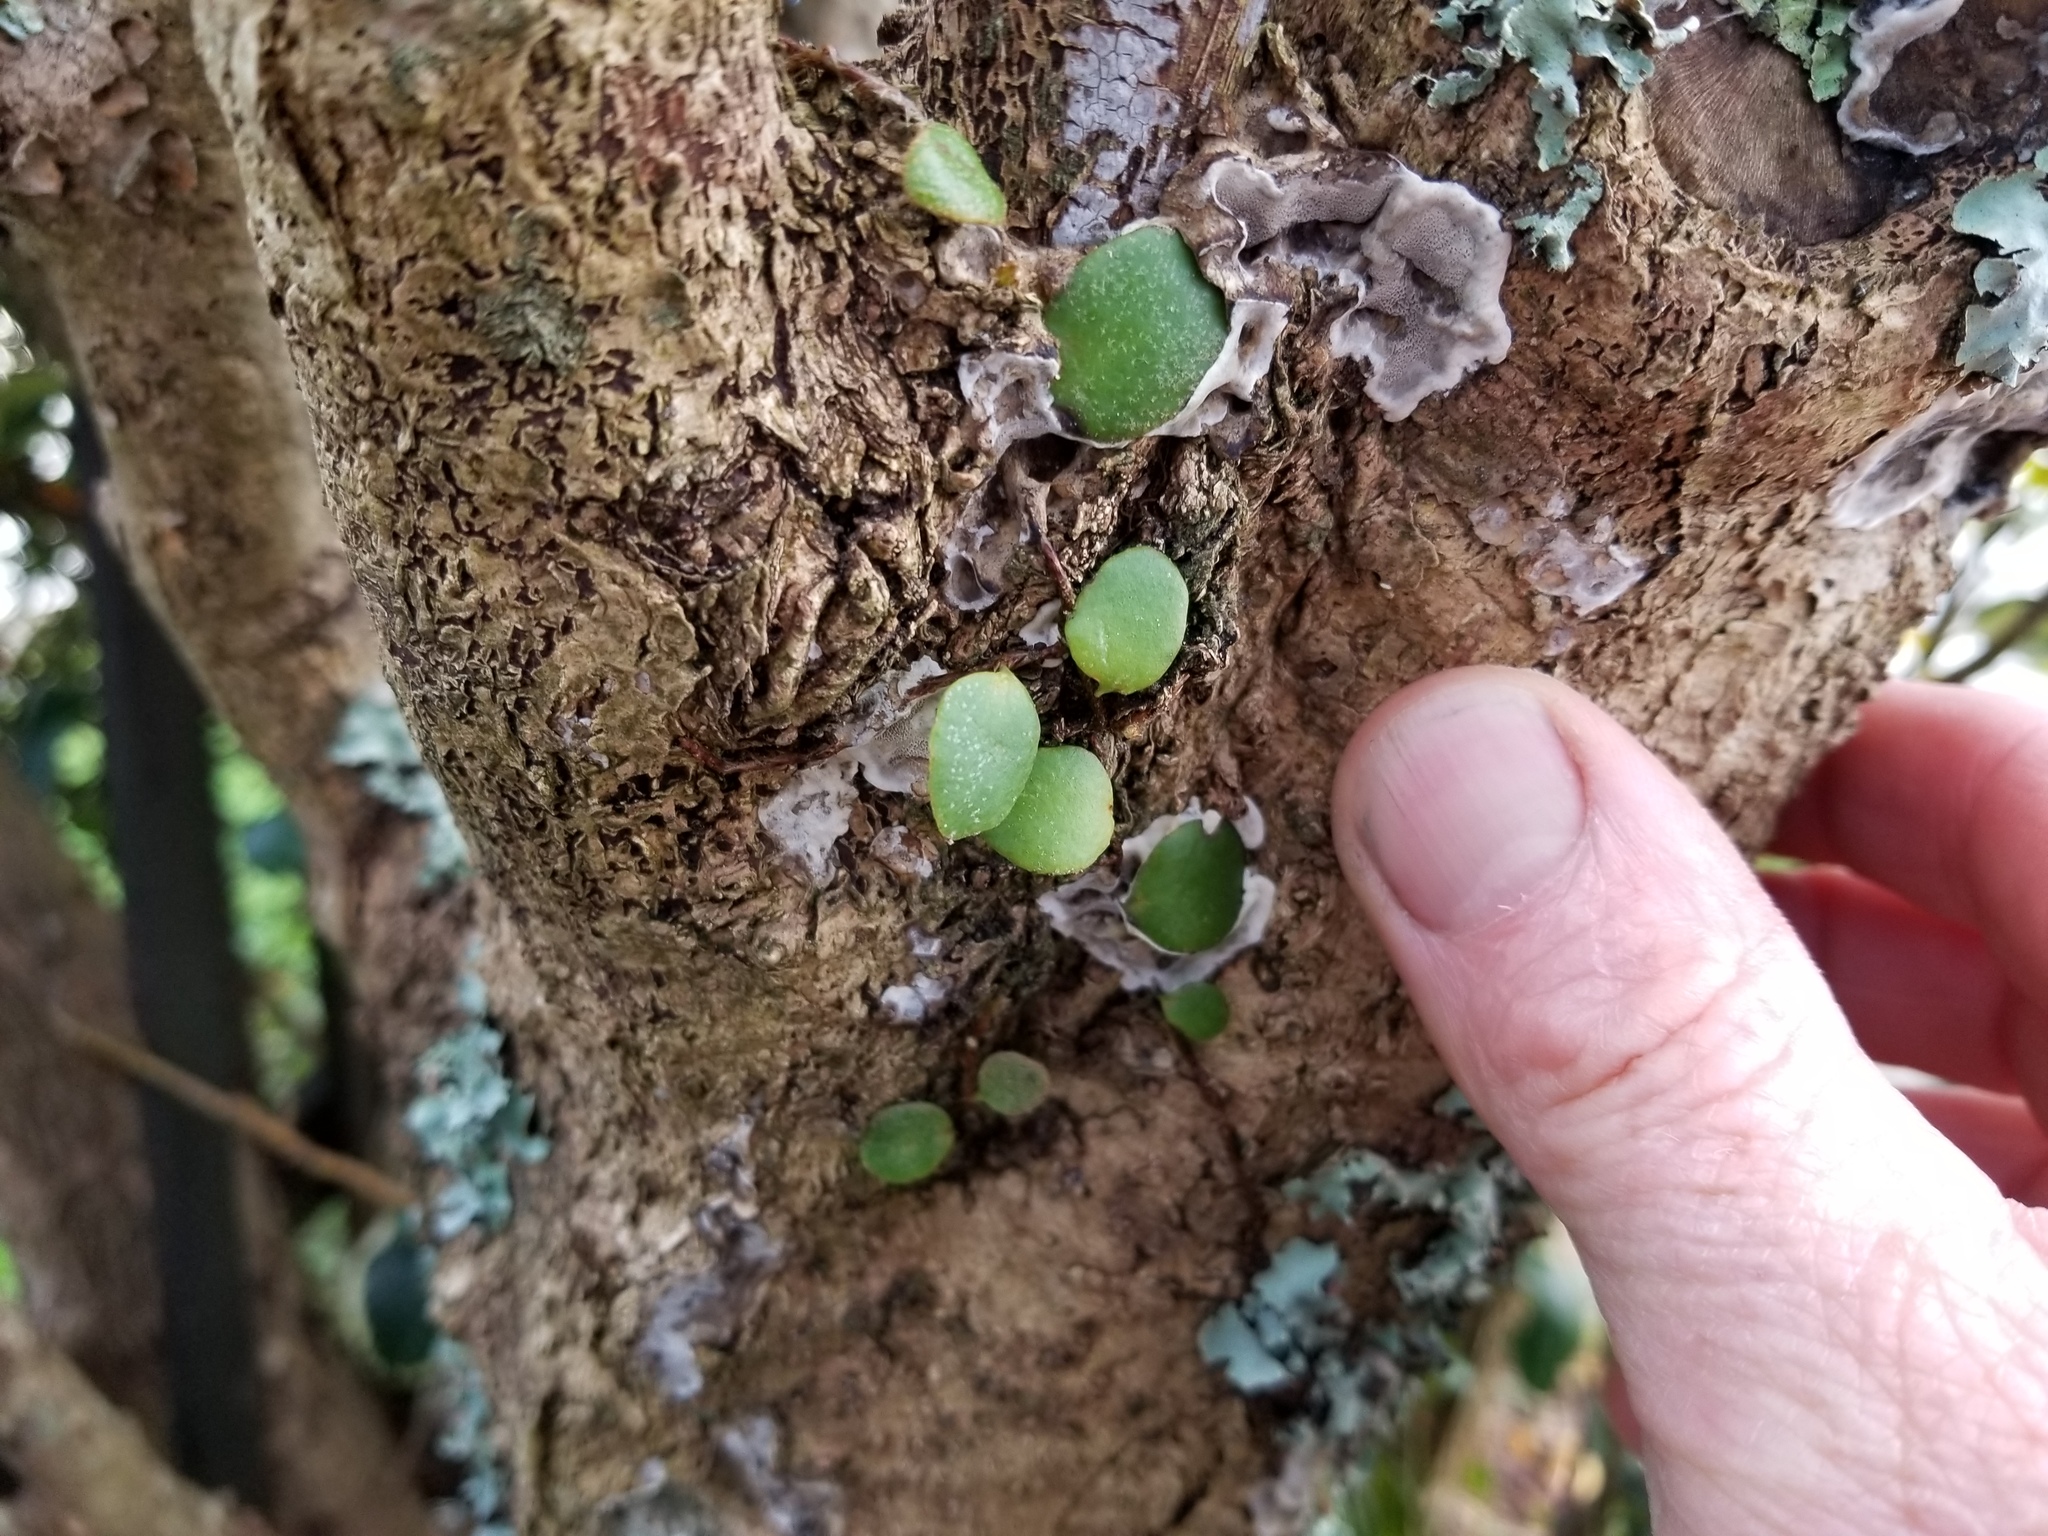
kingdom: Plantae
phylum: Tracheophyta
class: Polypodiopsida
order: Polypodiales
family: Polypodiaceae
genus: Pyrrosia
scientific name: Pyrrosia eleagnifolia
